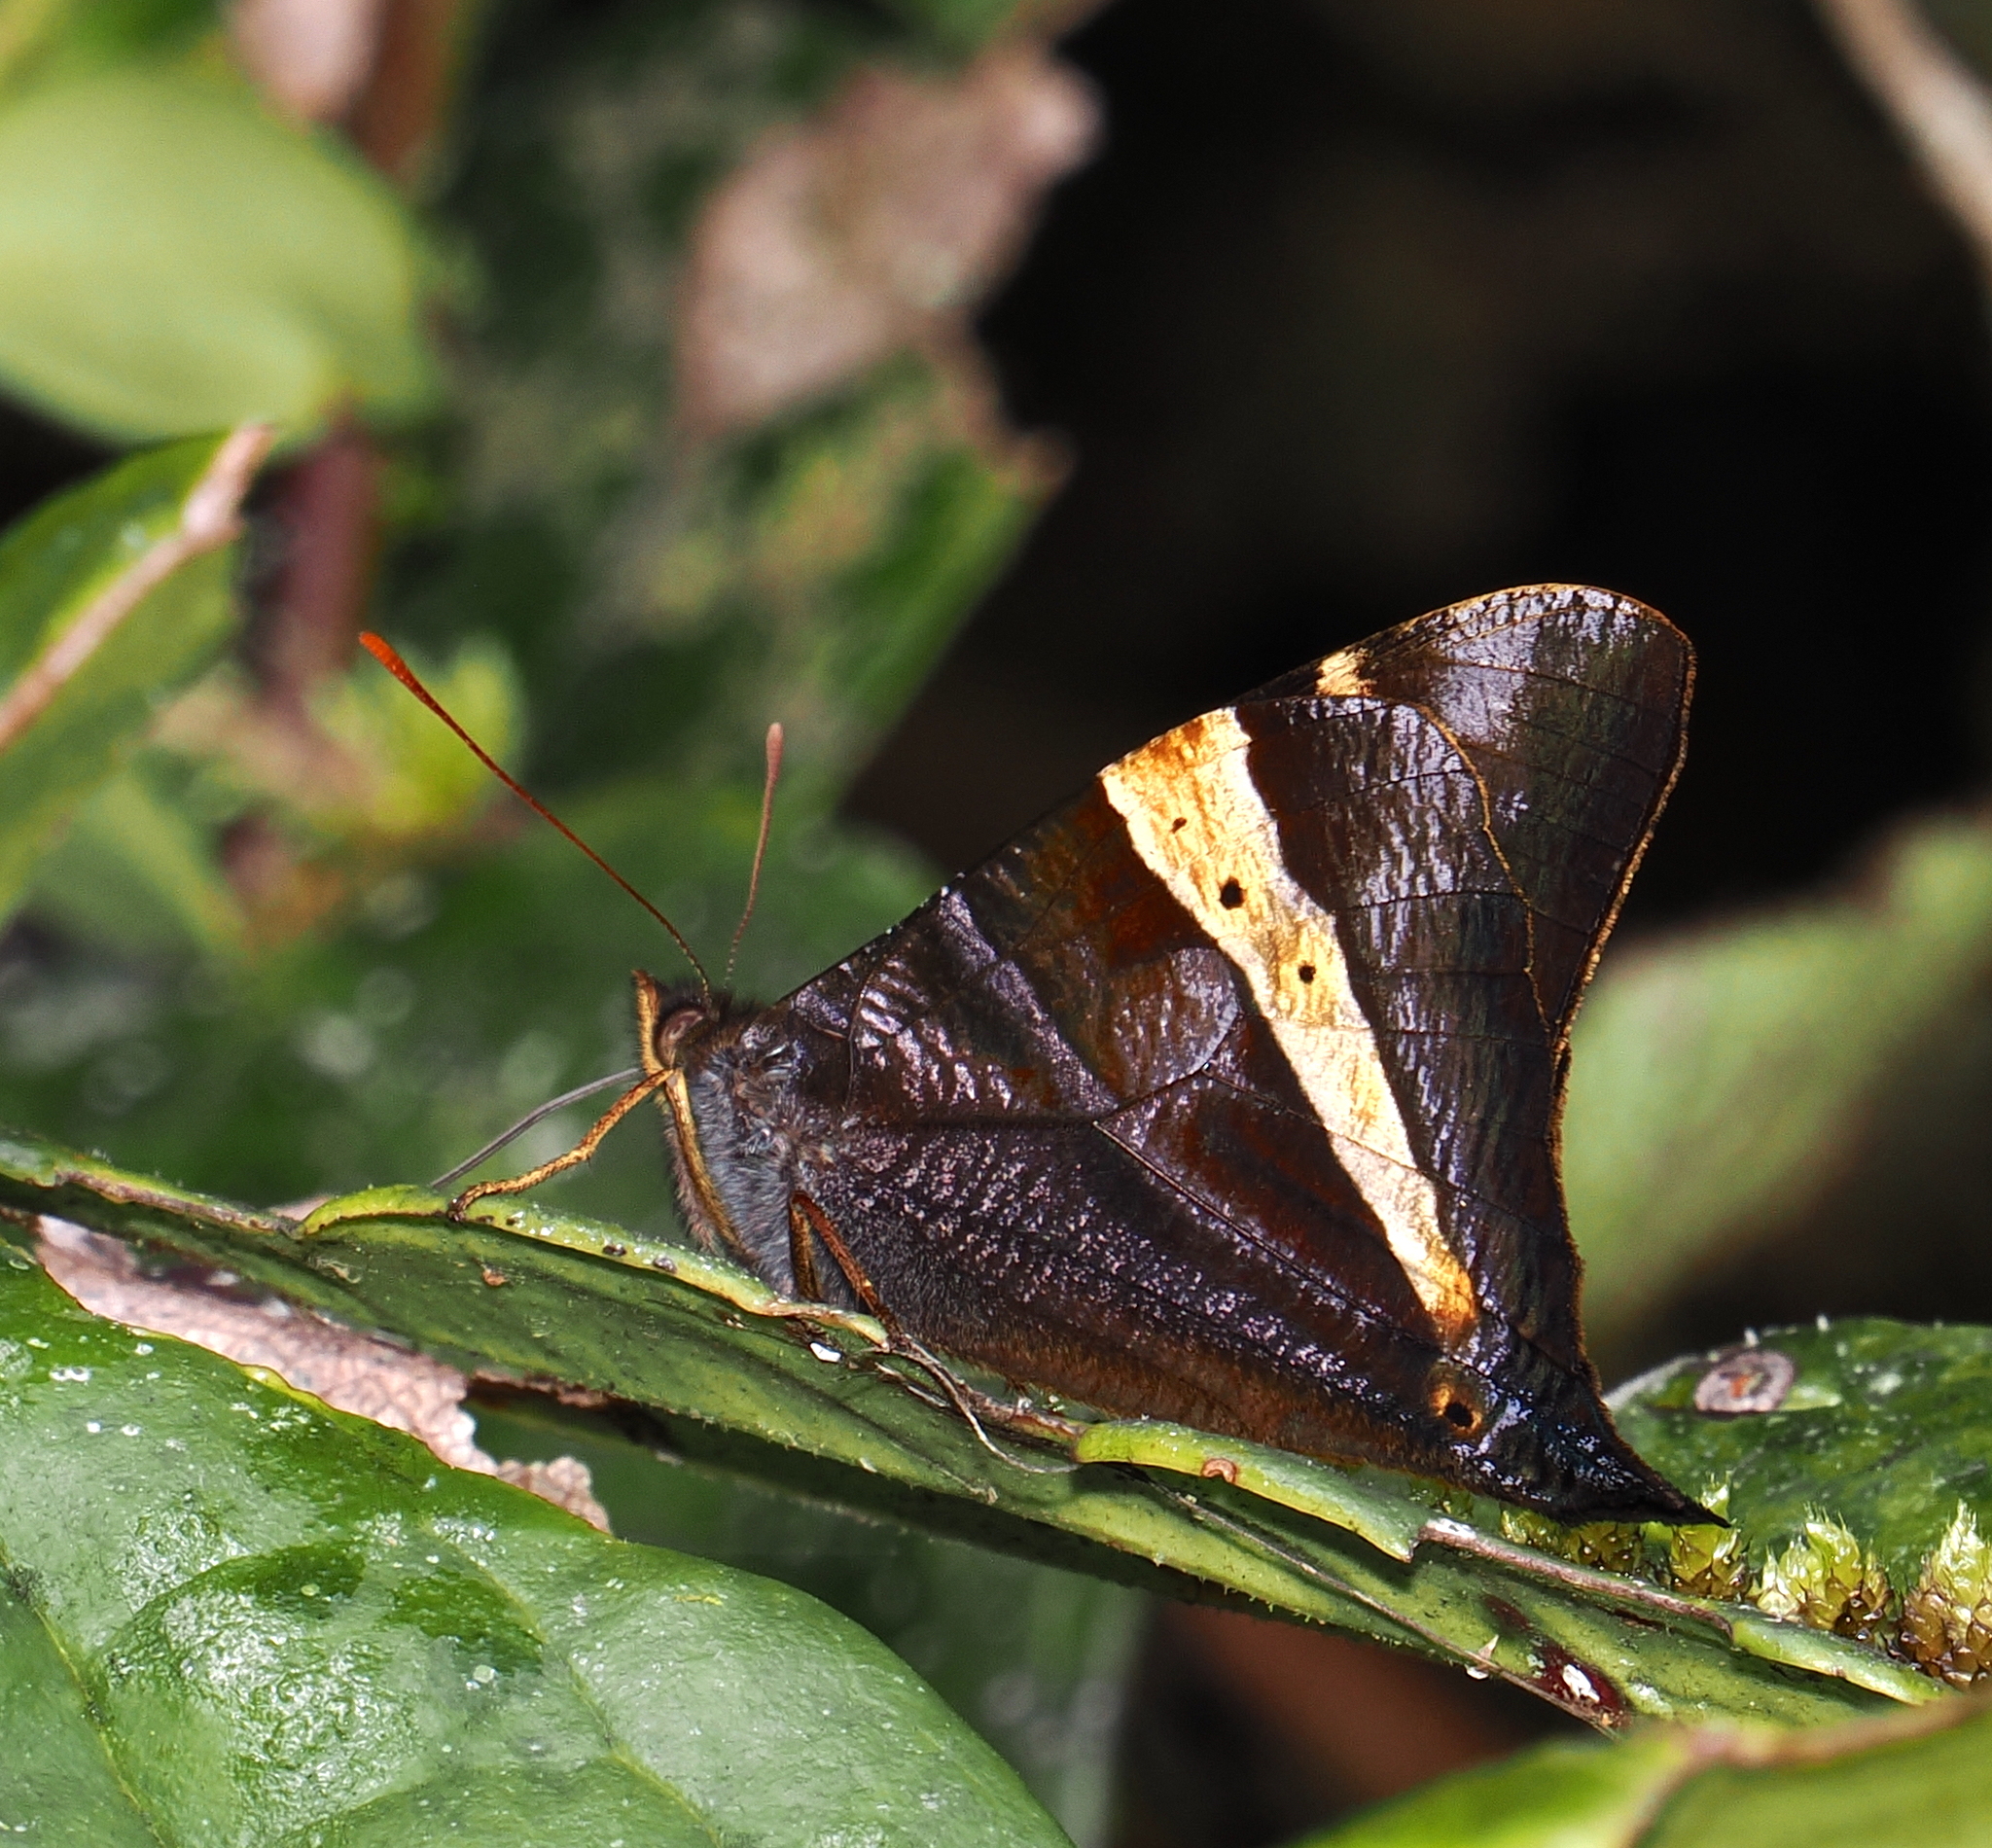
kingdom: Animalia
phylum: Arthropoda
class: Insecta
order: Lepidoptera
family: Nymphalidae
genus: Corades
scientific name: Corades chirone
